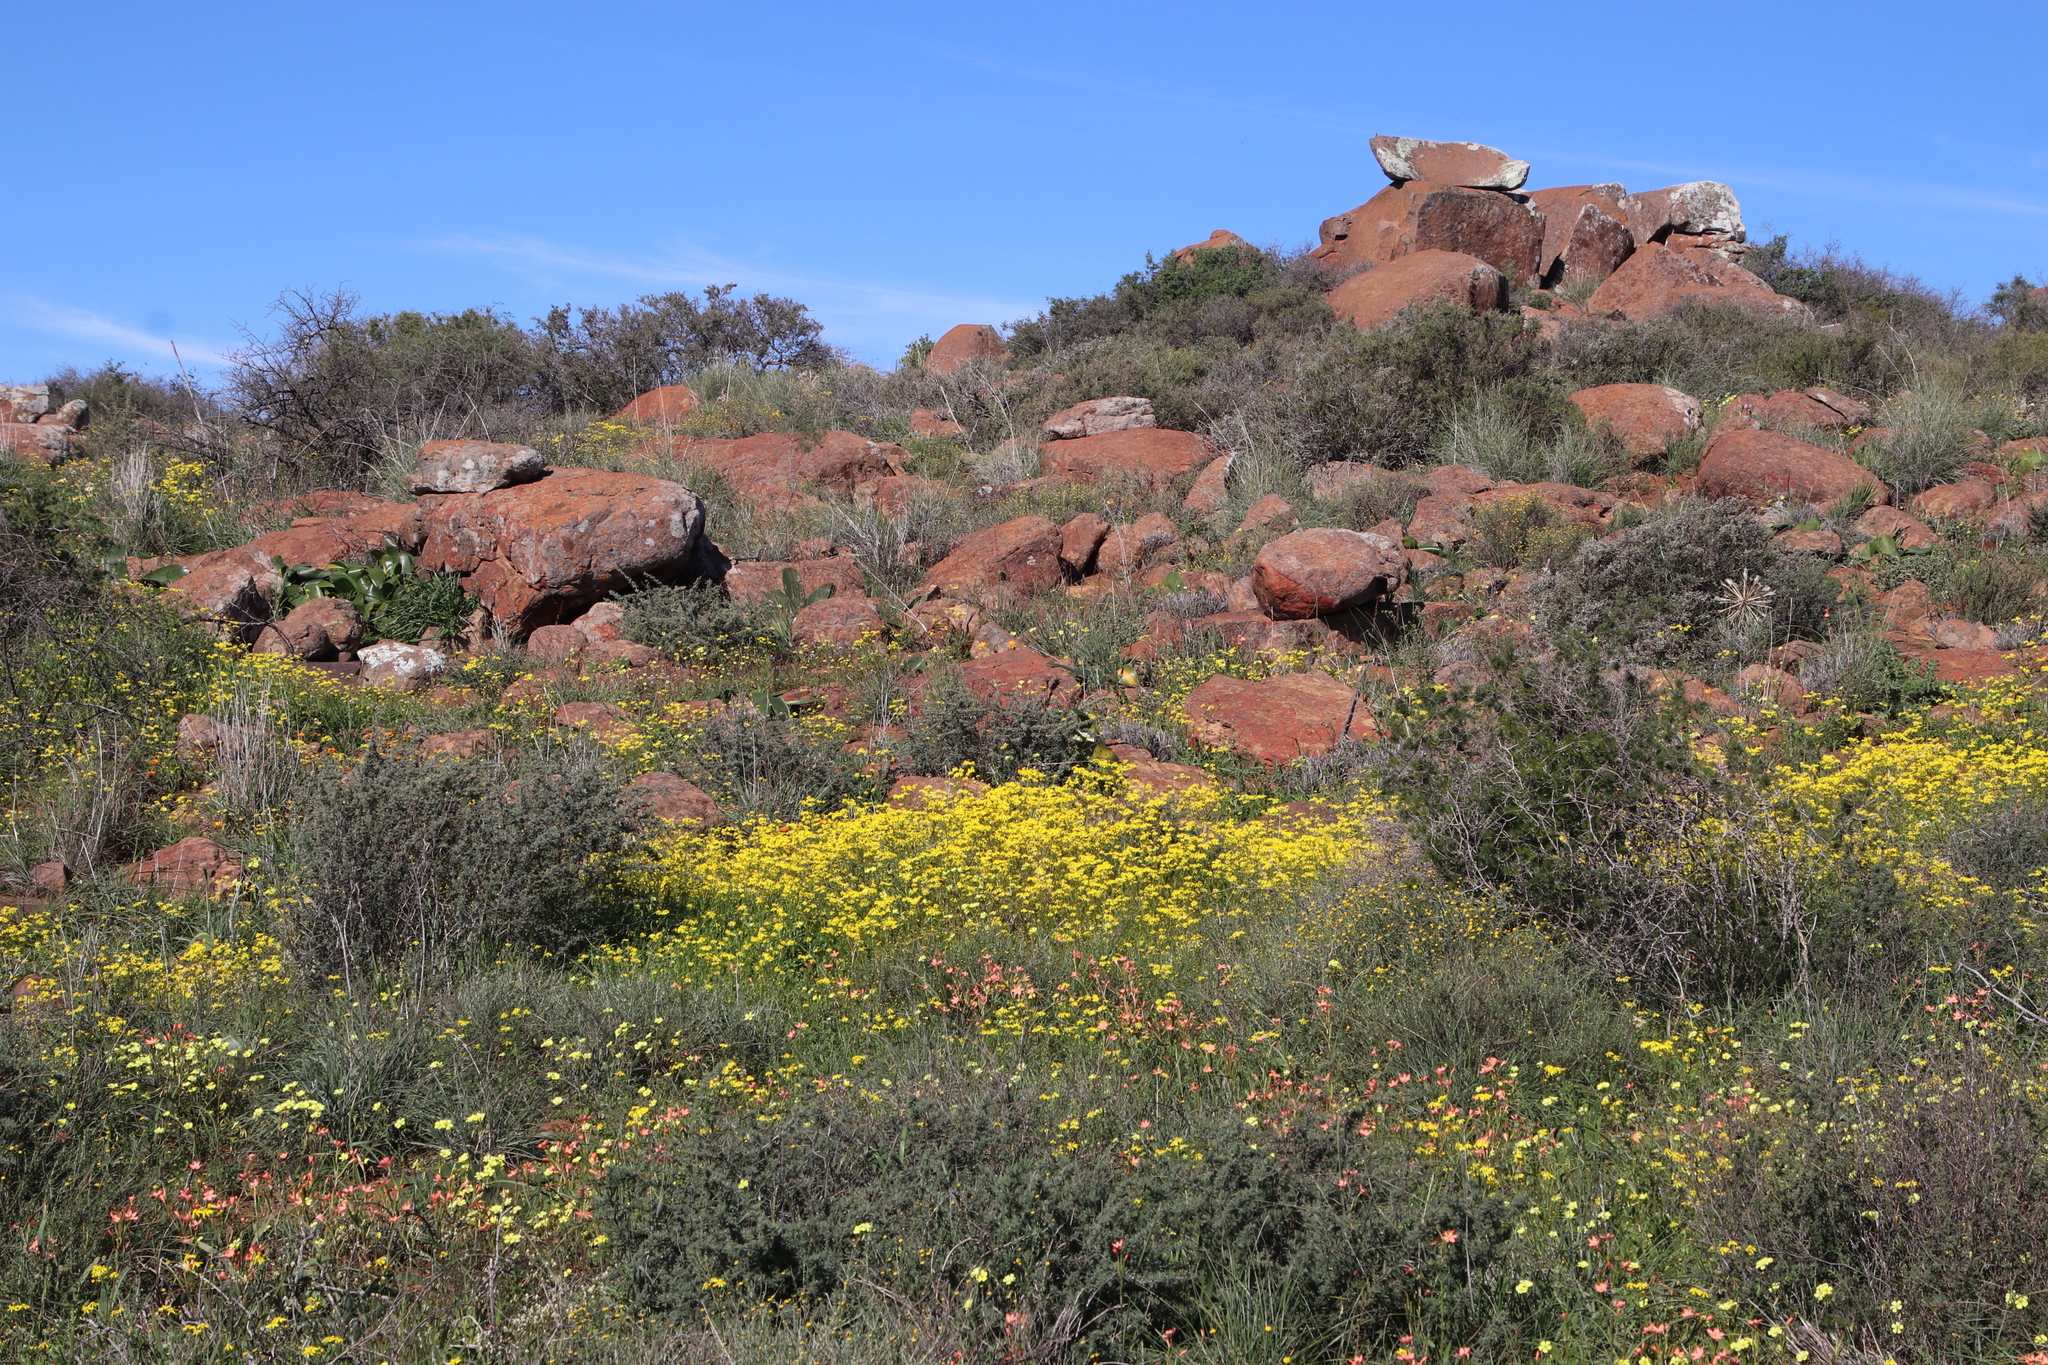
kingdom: Plantae
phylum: Tracheophyta
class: Magnoliopsida
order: Asterales
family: Asteraceae
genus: Senecio
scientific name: Senecio abruptus
